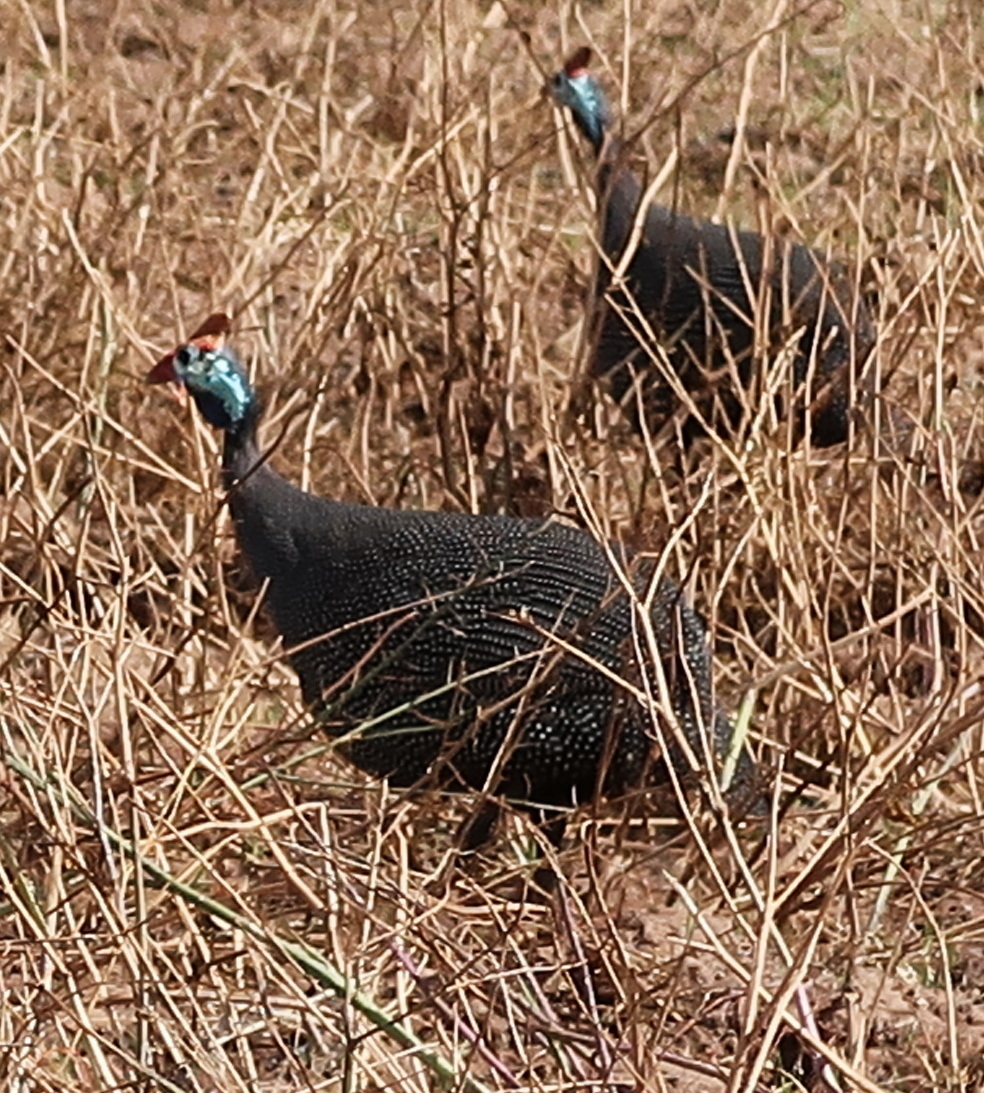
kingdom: Animalia
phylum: Chordata
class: Aves
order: Galliformes
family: Numididae
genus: Numida
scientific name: Numida meleagris
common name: Helmeted guineafowl
